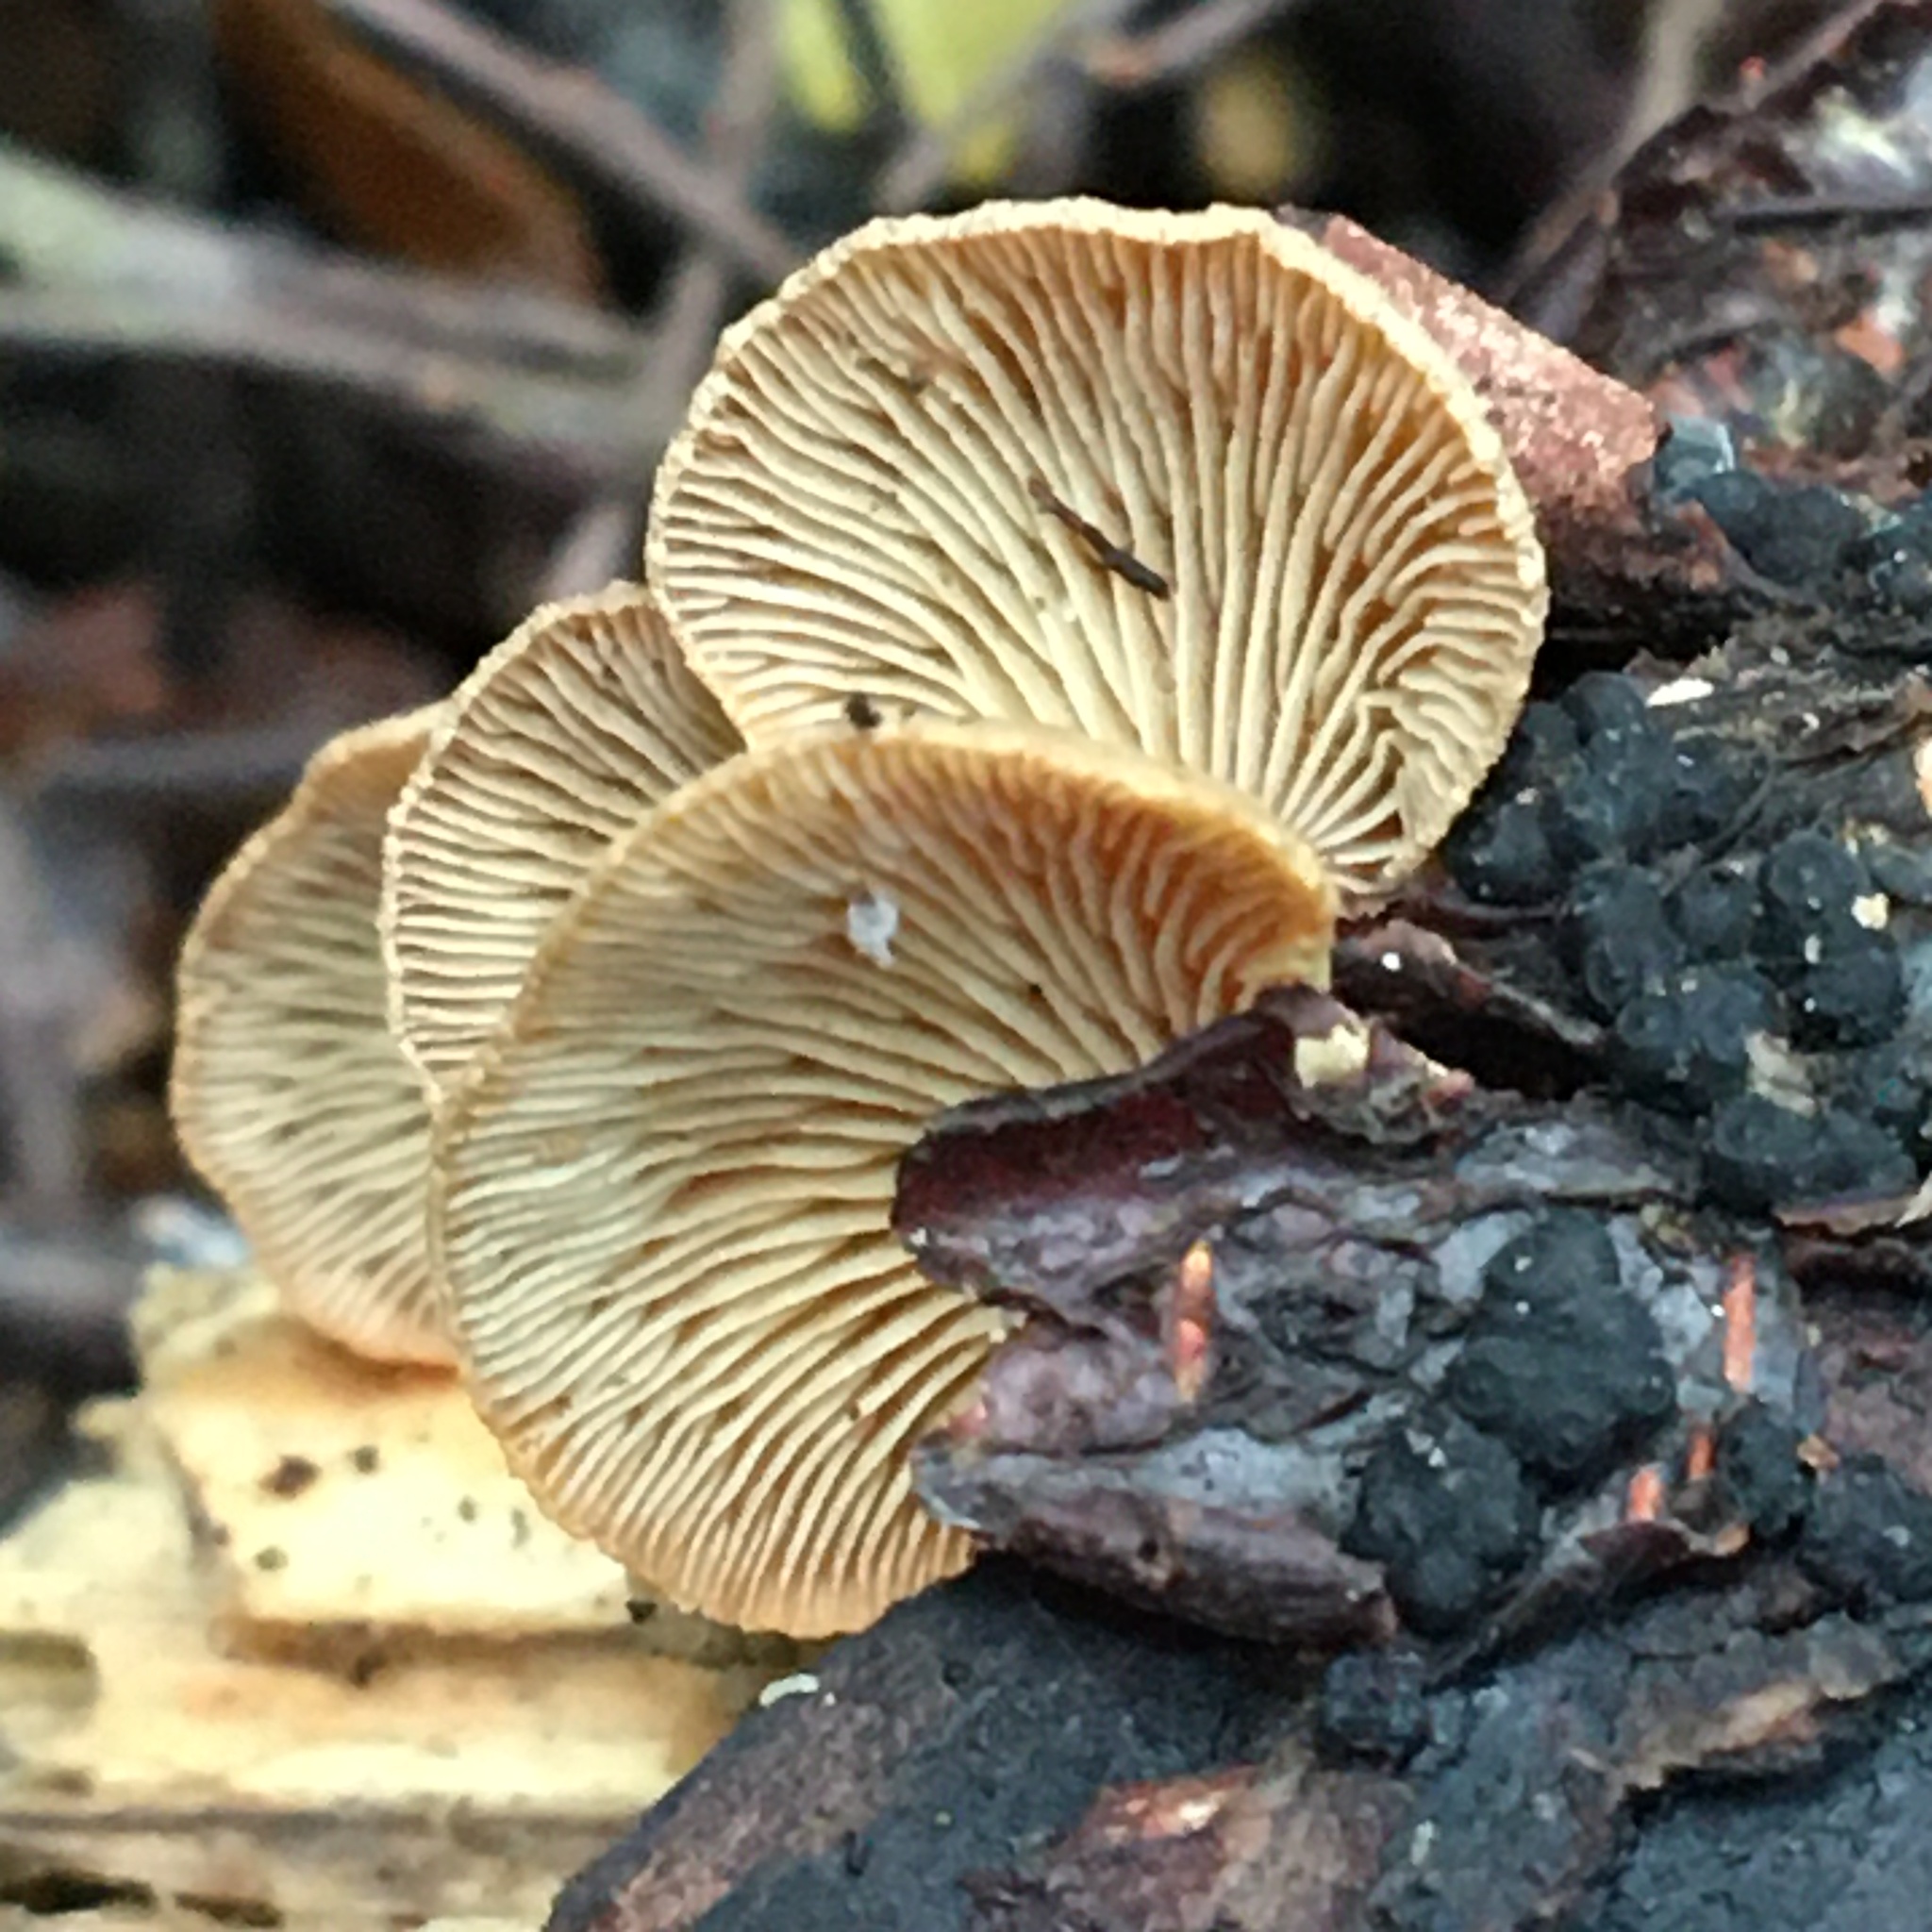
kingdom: Fungi
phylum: Basidiomycota
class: Agaricomycetes
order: Agaricales
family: Mycenaceae
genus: Panellus
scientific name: Panellus stipticus
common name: Bitter oysterling
